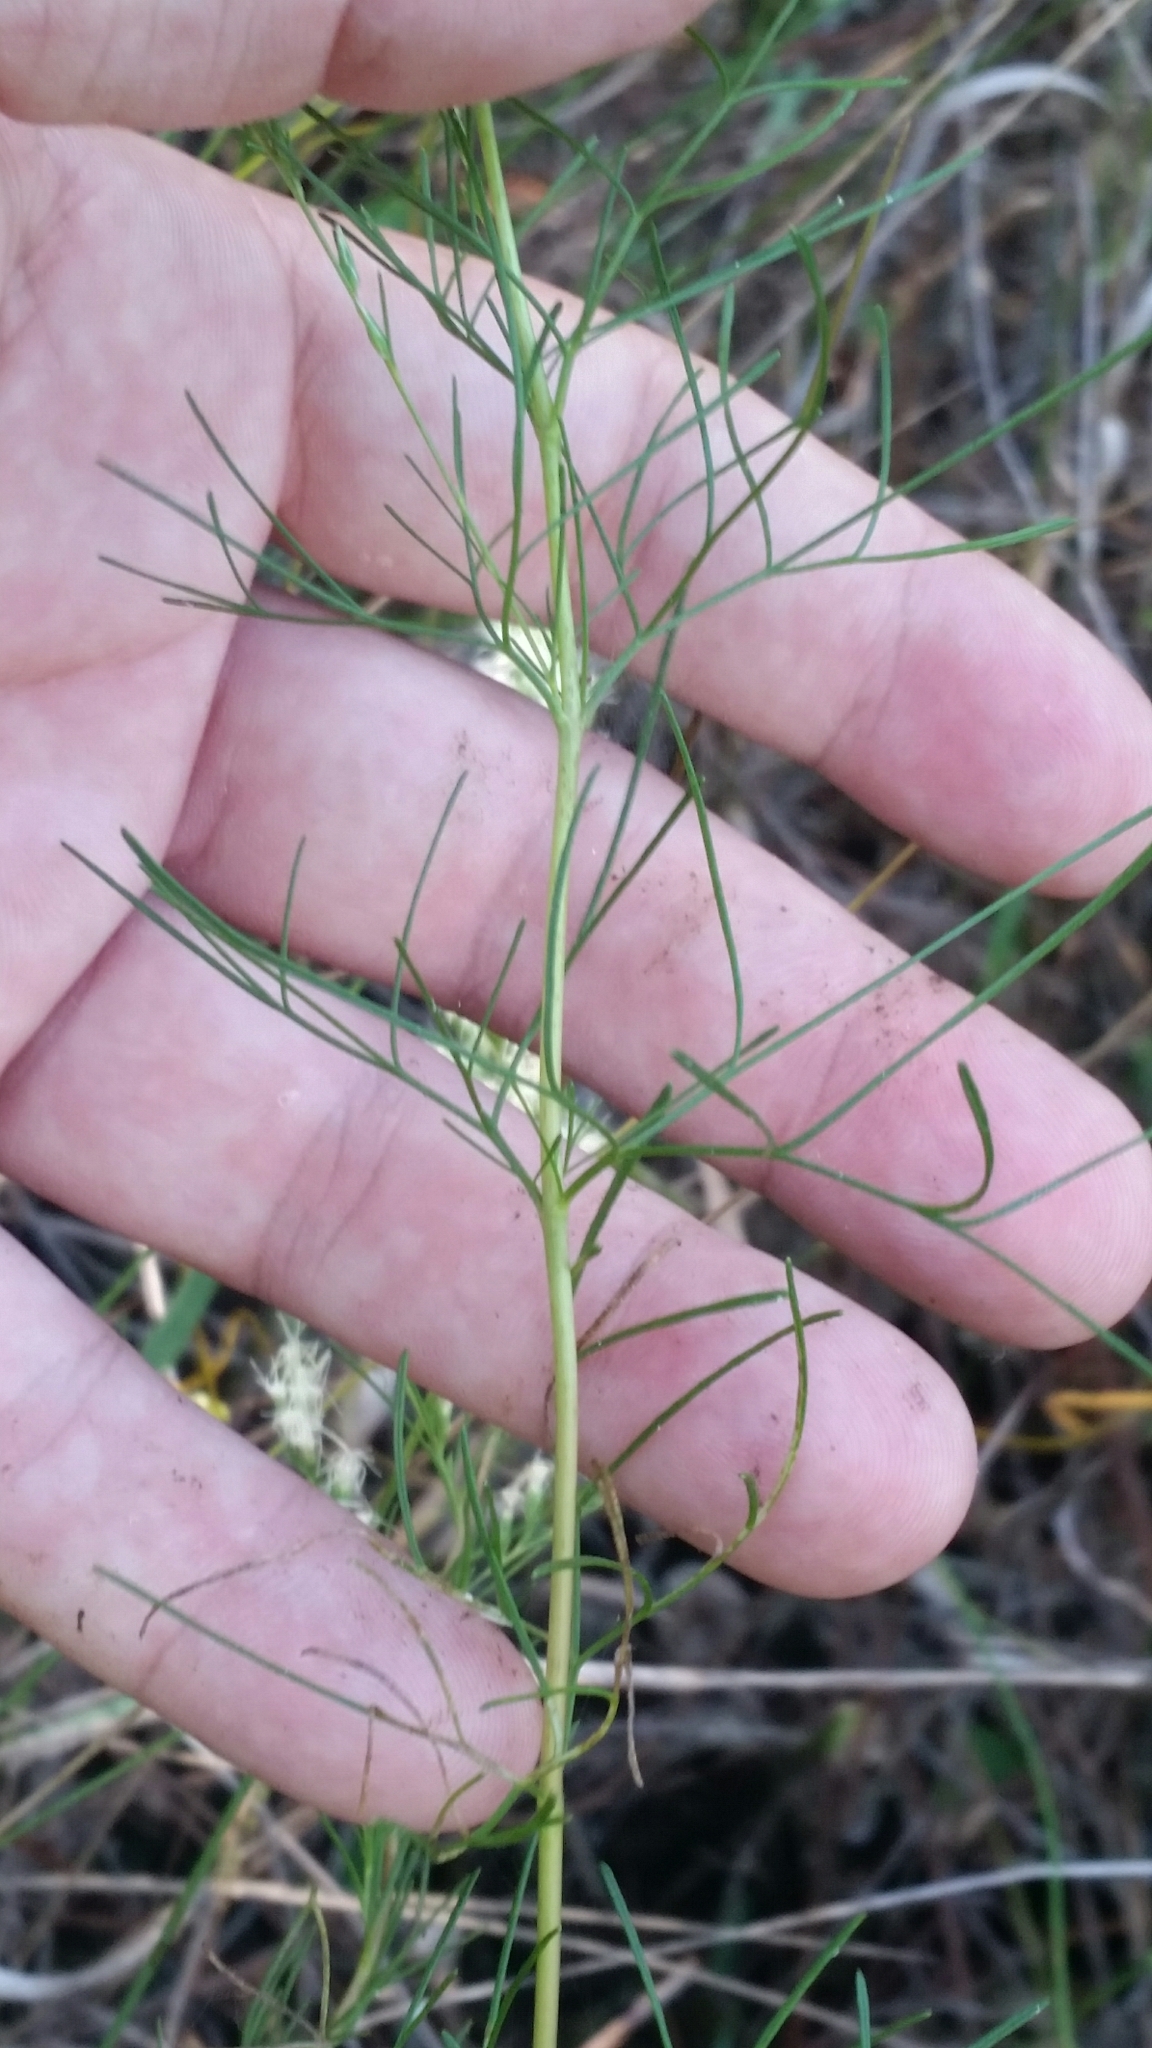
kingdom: Plantae
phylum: Tracheophyta
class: Magnoliopsida
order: Asterales
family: Asteraceae
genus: Eupatorium
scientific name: Eupatorium leptophyllum
